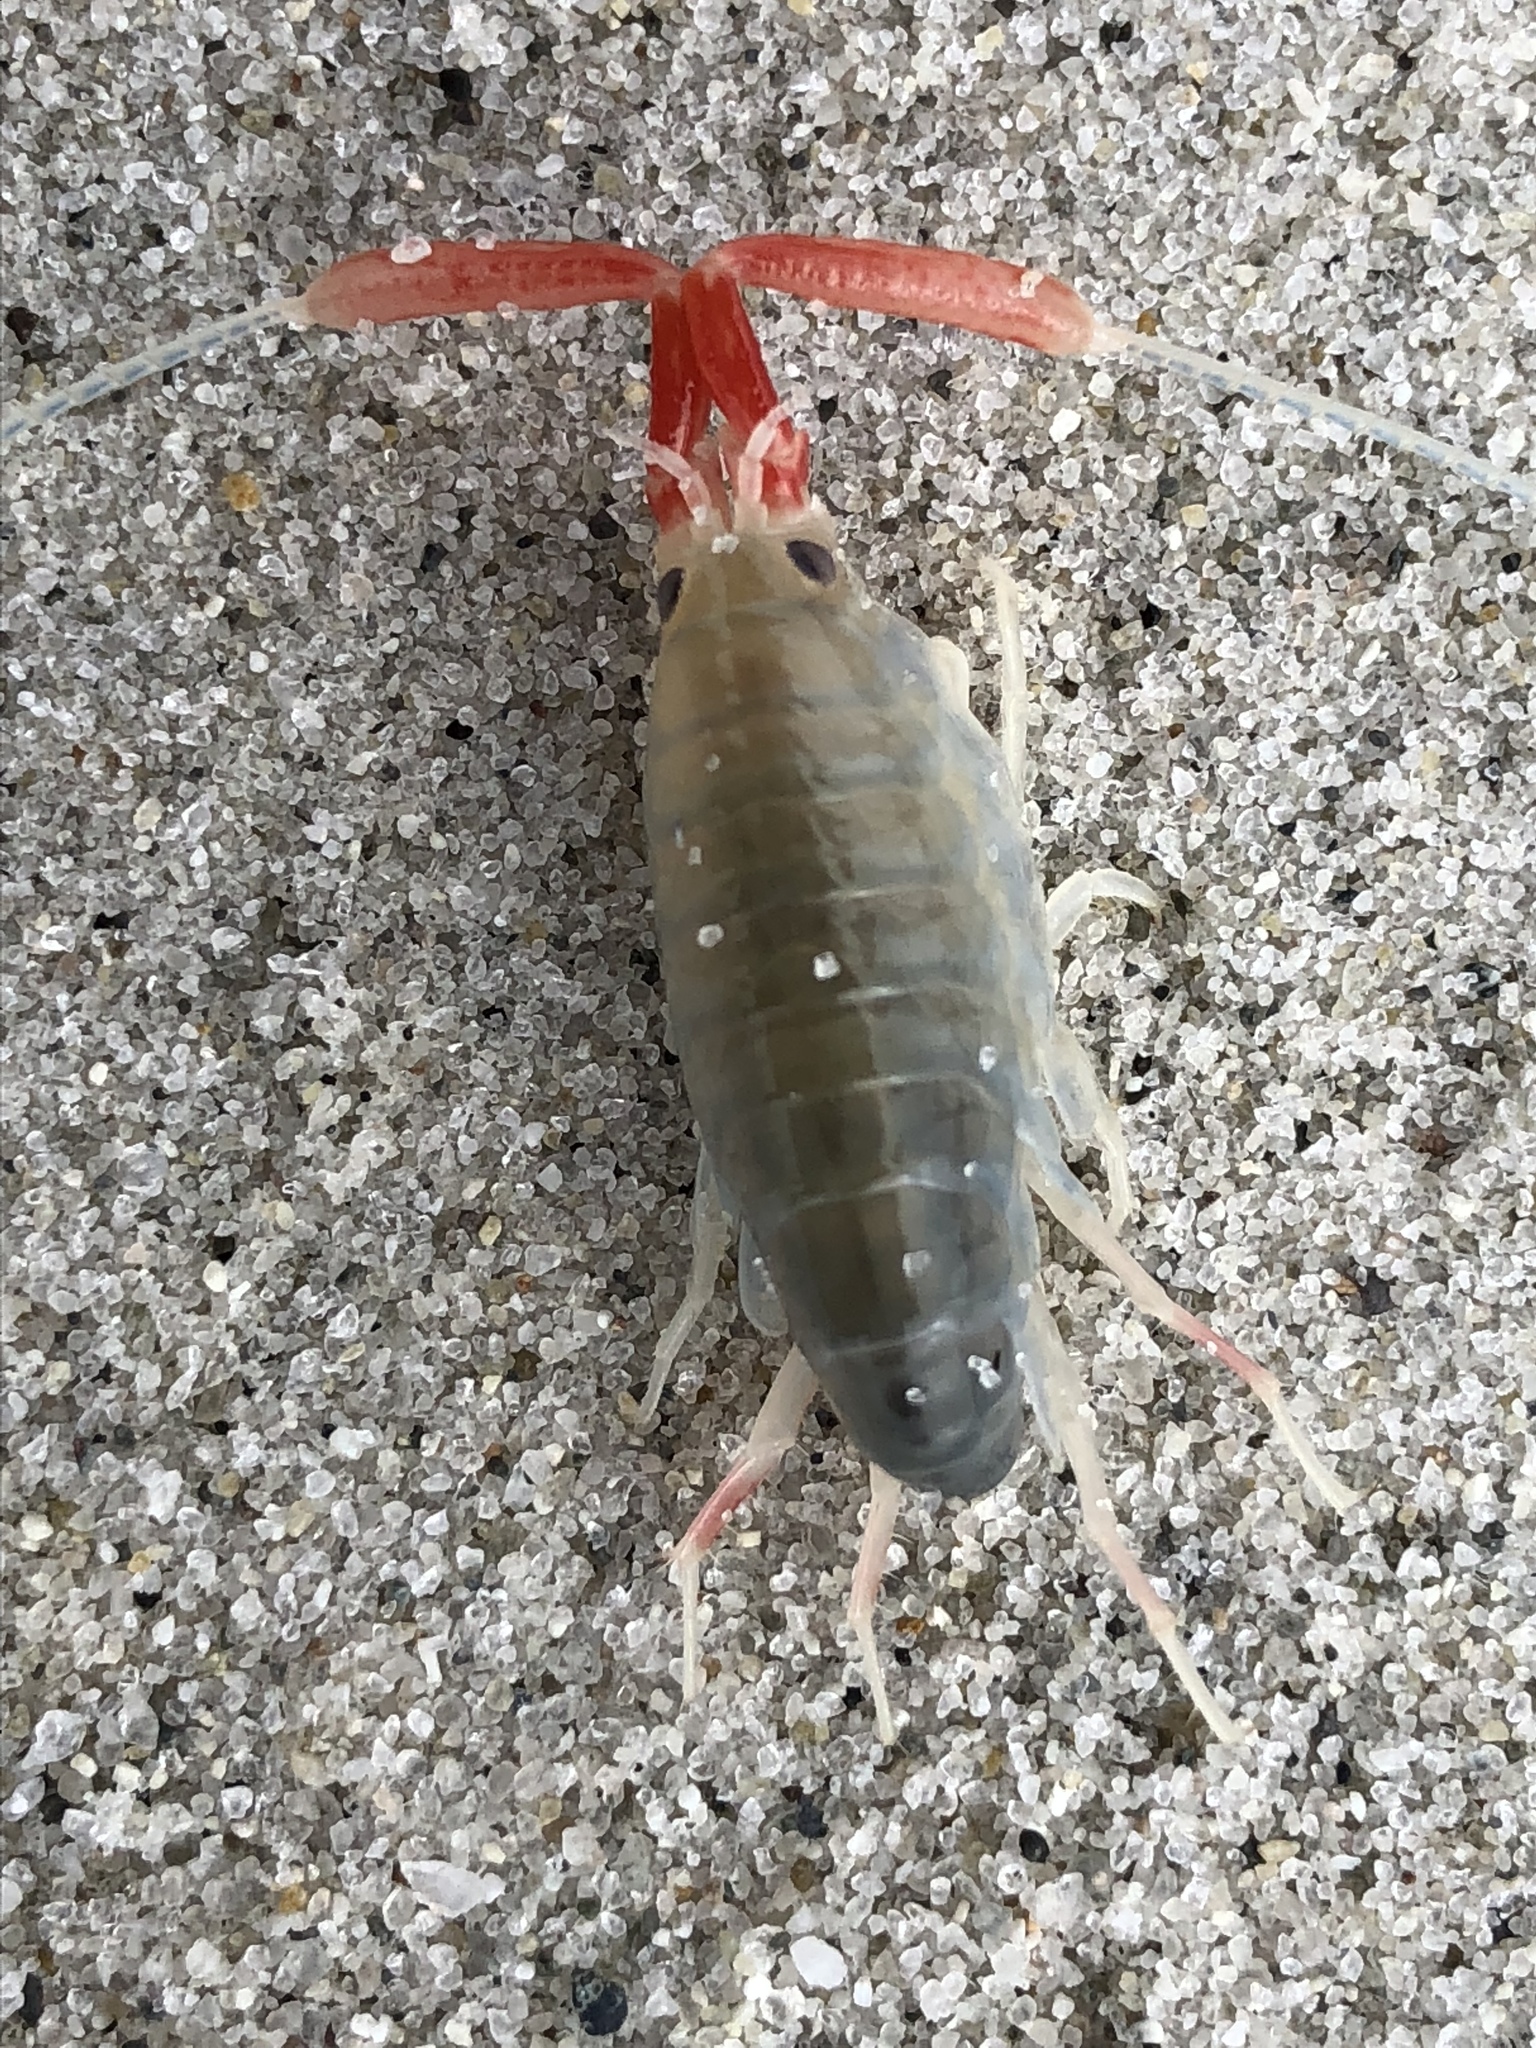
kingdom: Animalia
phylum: Arthropoda
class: Malacostraca
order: Amphipoda
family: Talitridae
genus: Megalorchestia
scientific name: Megalorchestia californiana
